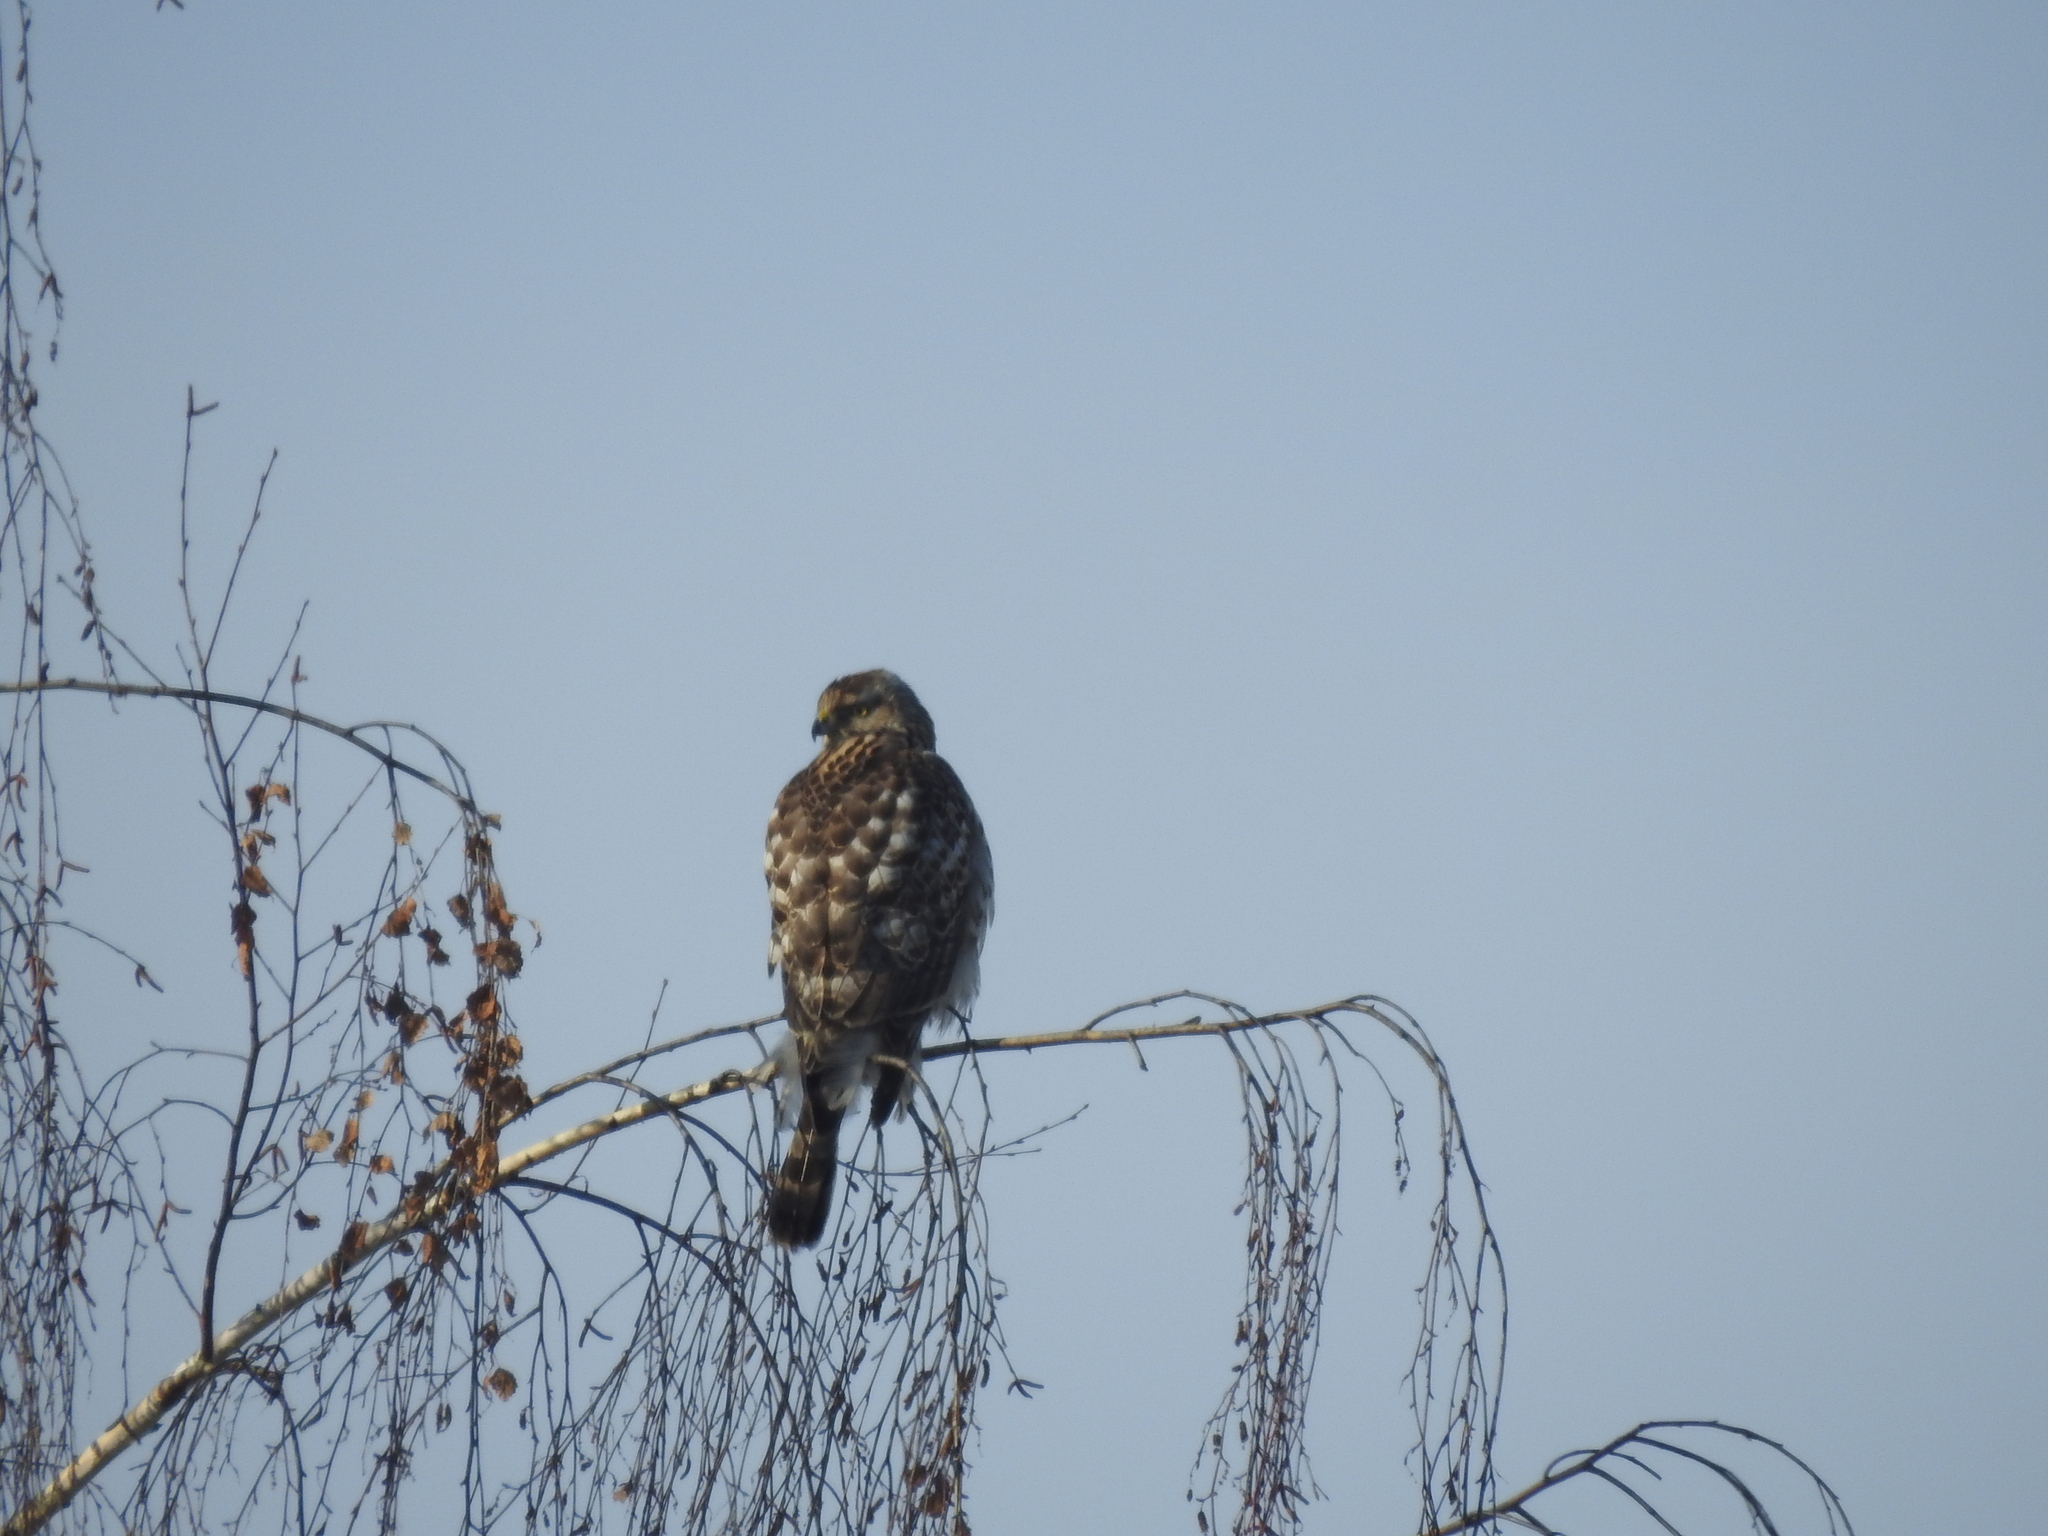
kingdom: Animalia
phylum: Chordata
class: Aves
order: Accipitriformes
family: Accipitridae
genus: Accipiter
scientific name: Accipiter gentilis
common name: Northern goshawk
